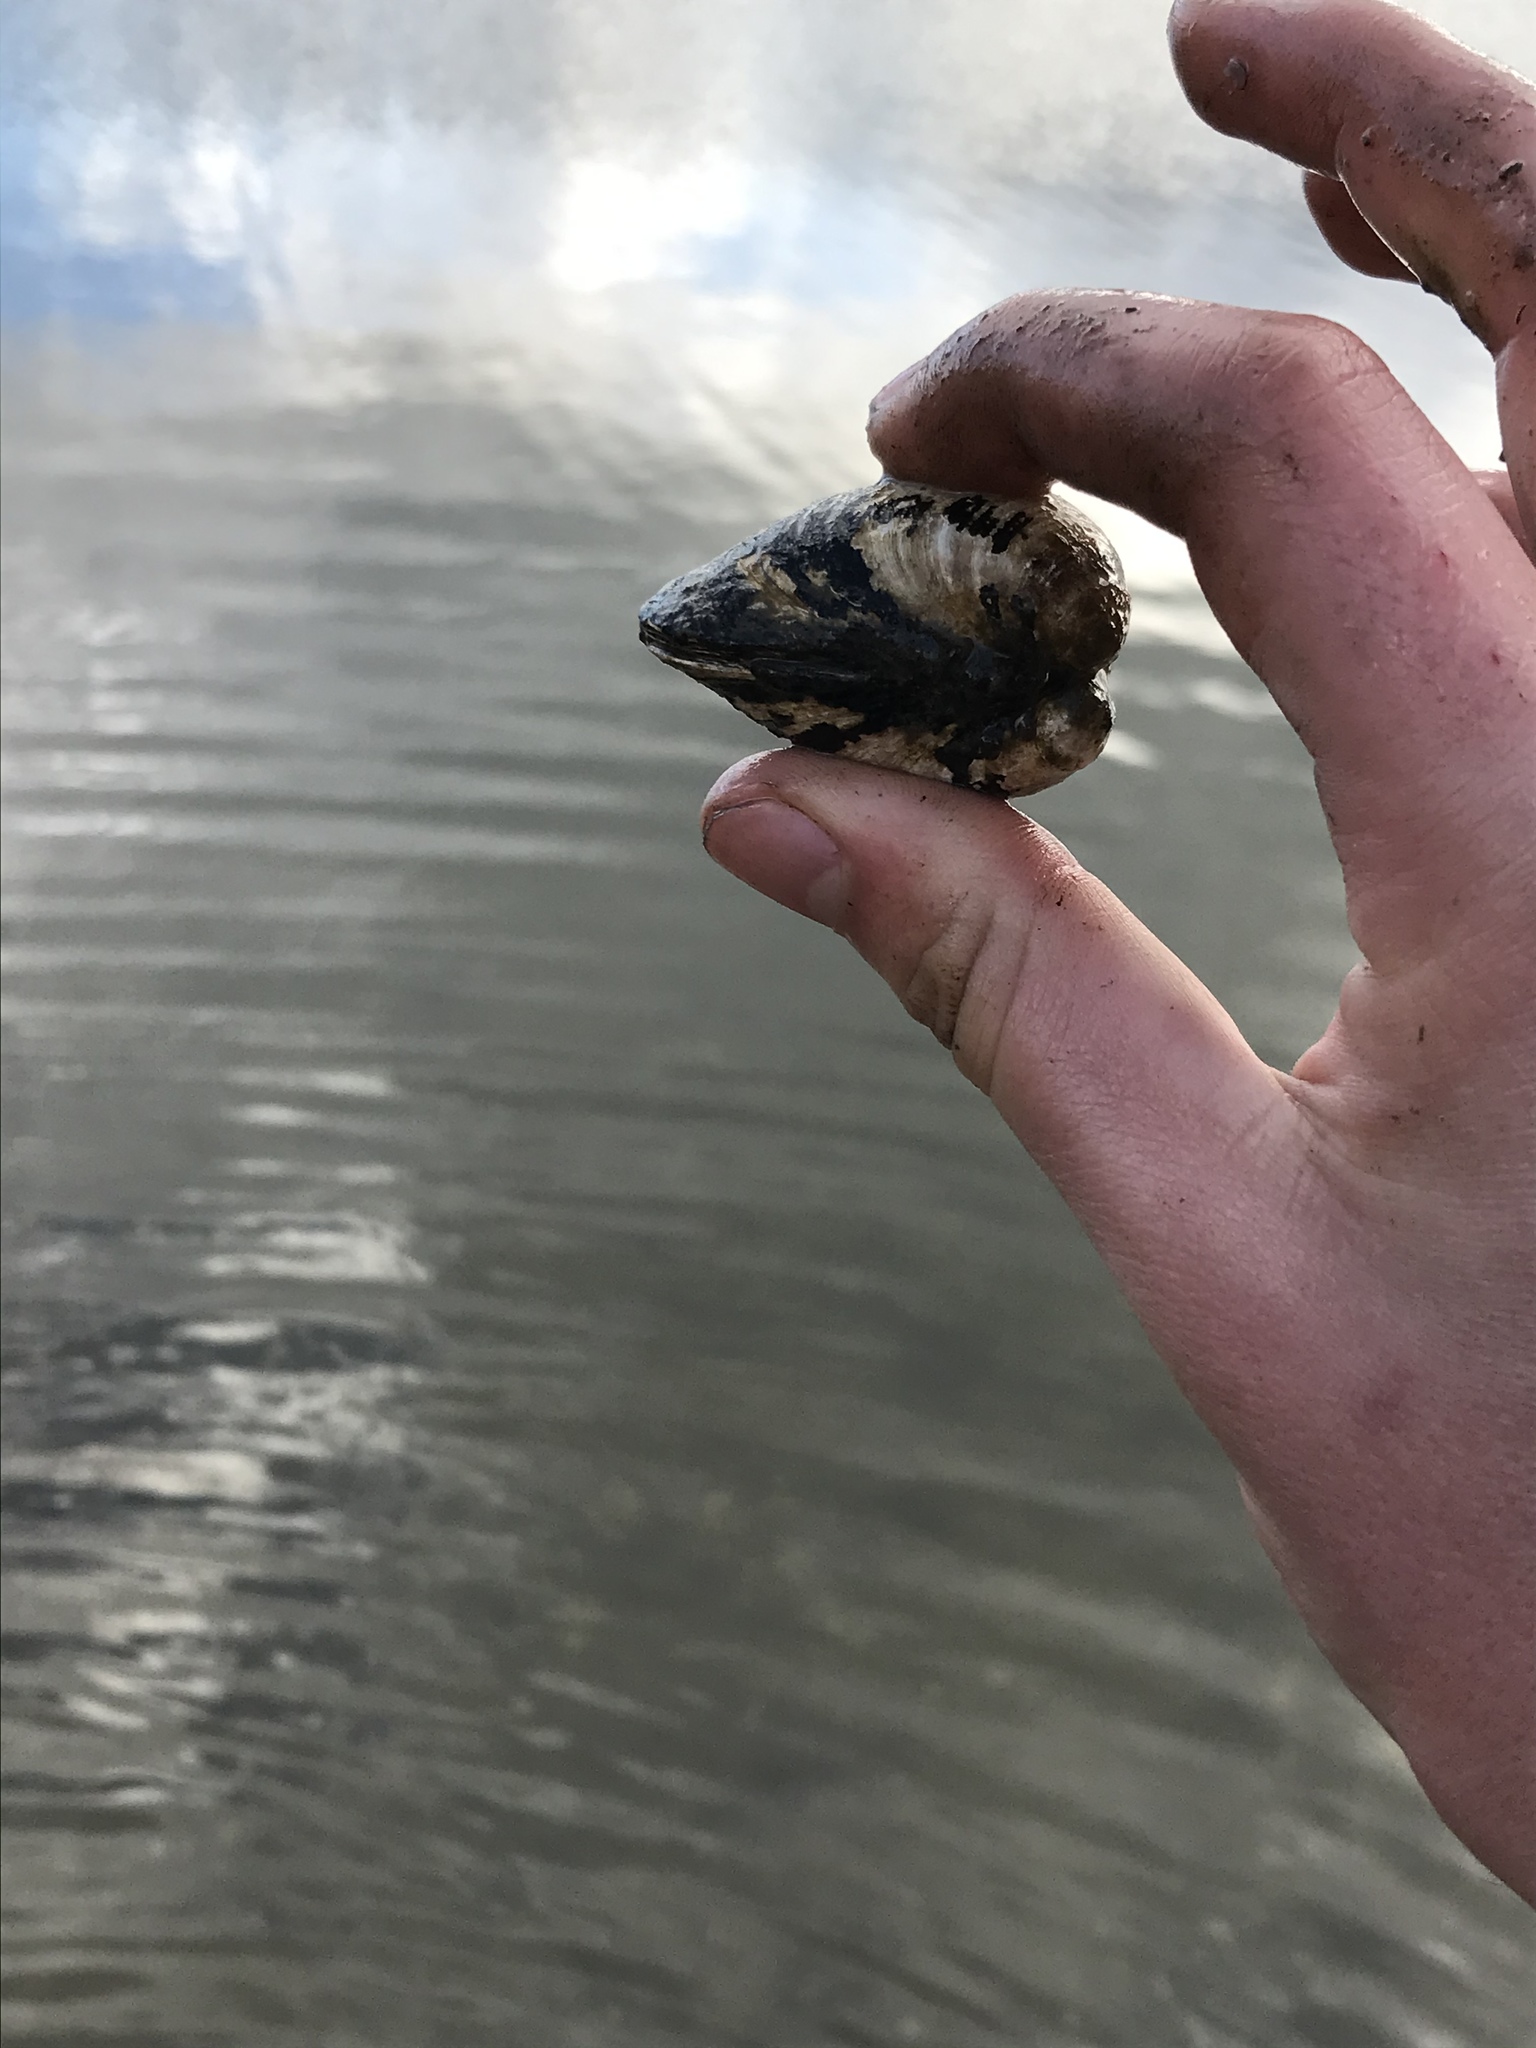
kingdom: Animalia
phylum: Mollusca
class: Bivalvia
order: Venerida
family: Cyrenidae
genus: Corbicula
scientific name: Corbicula fluminea
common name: Asian clam
